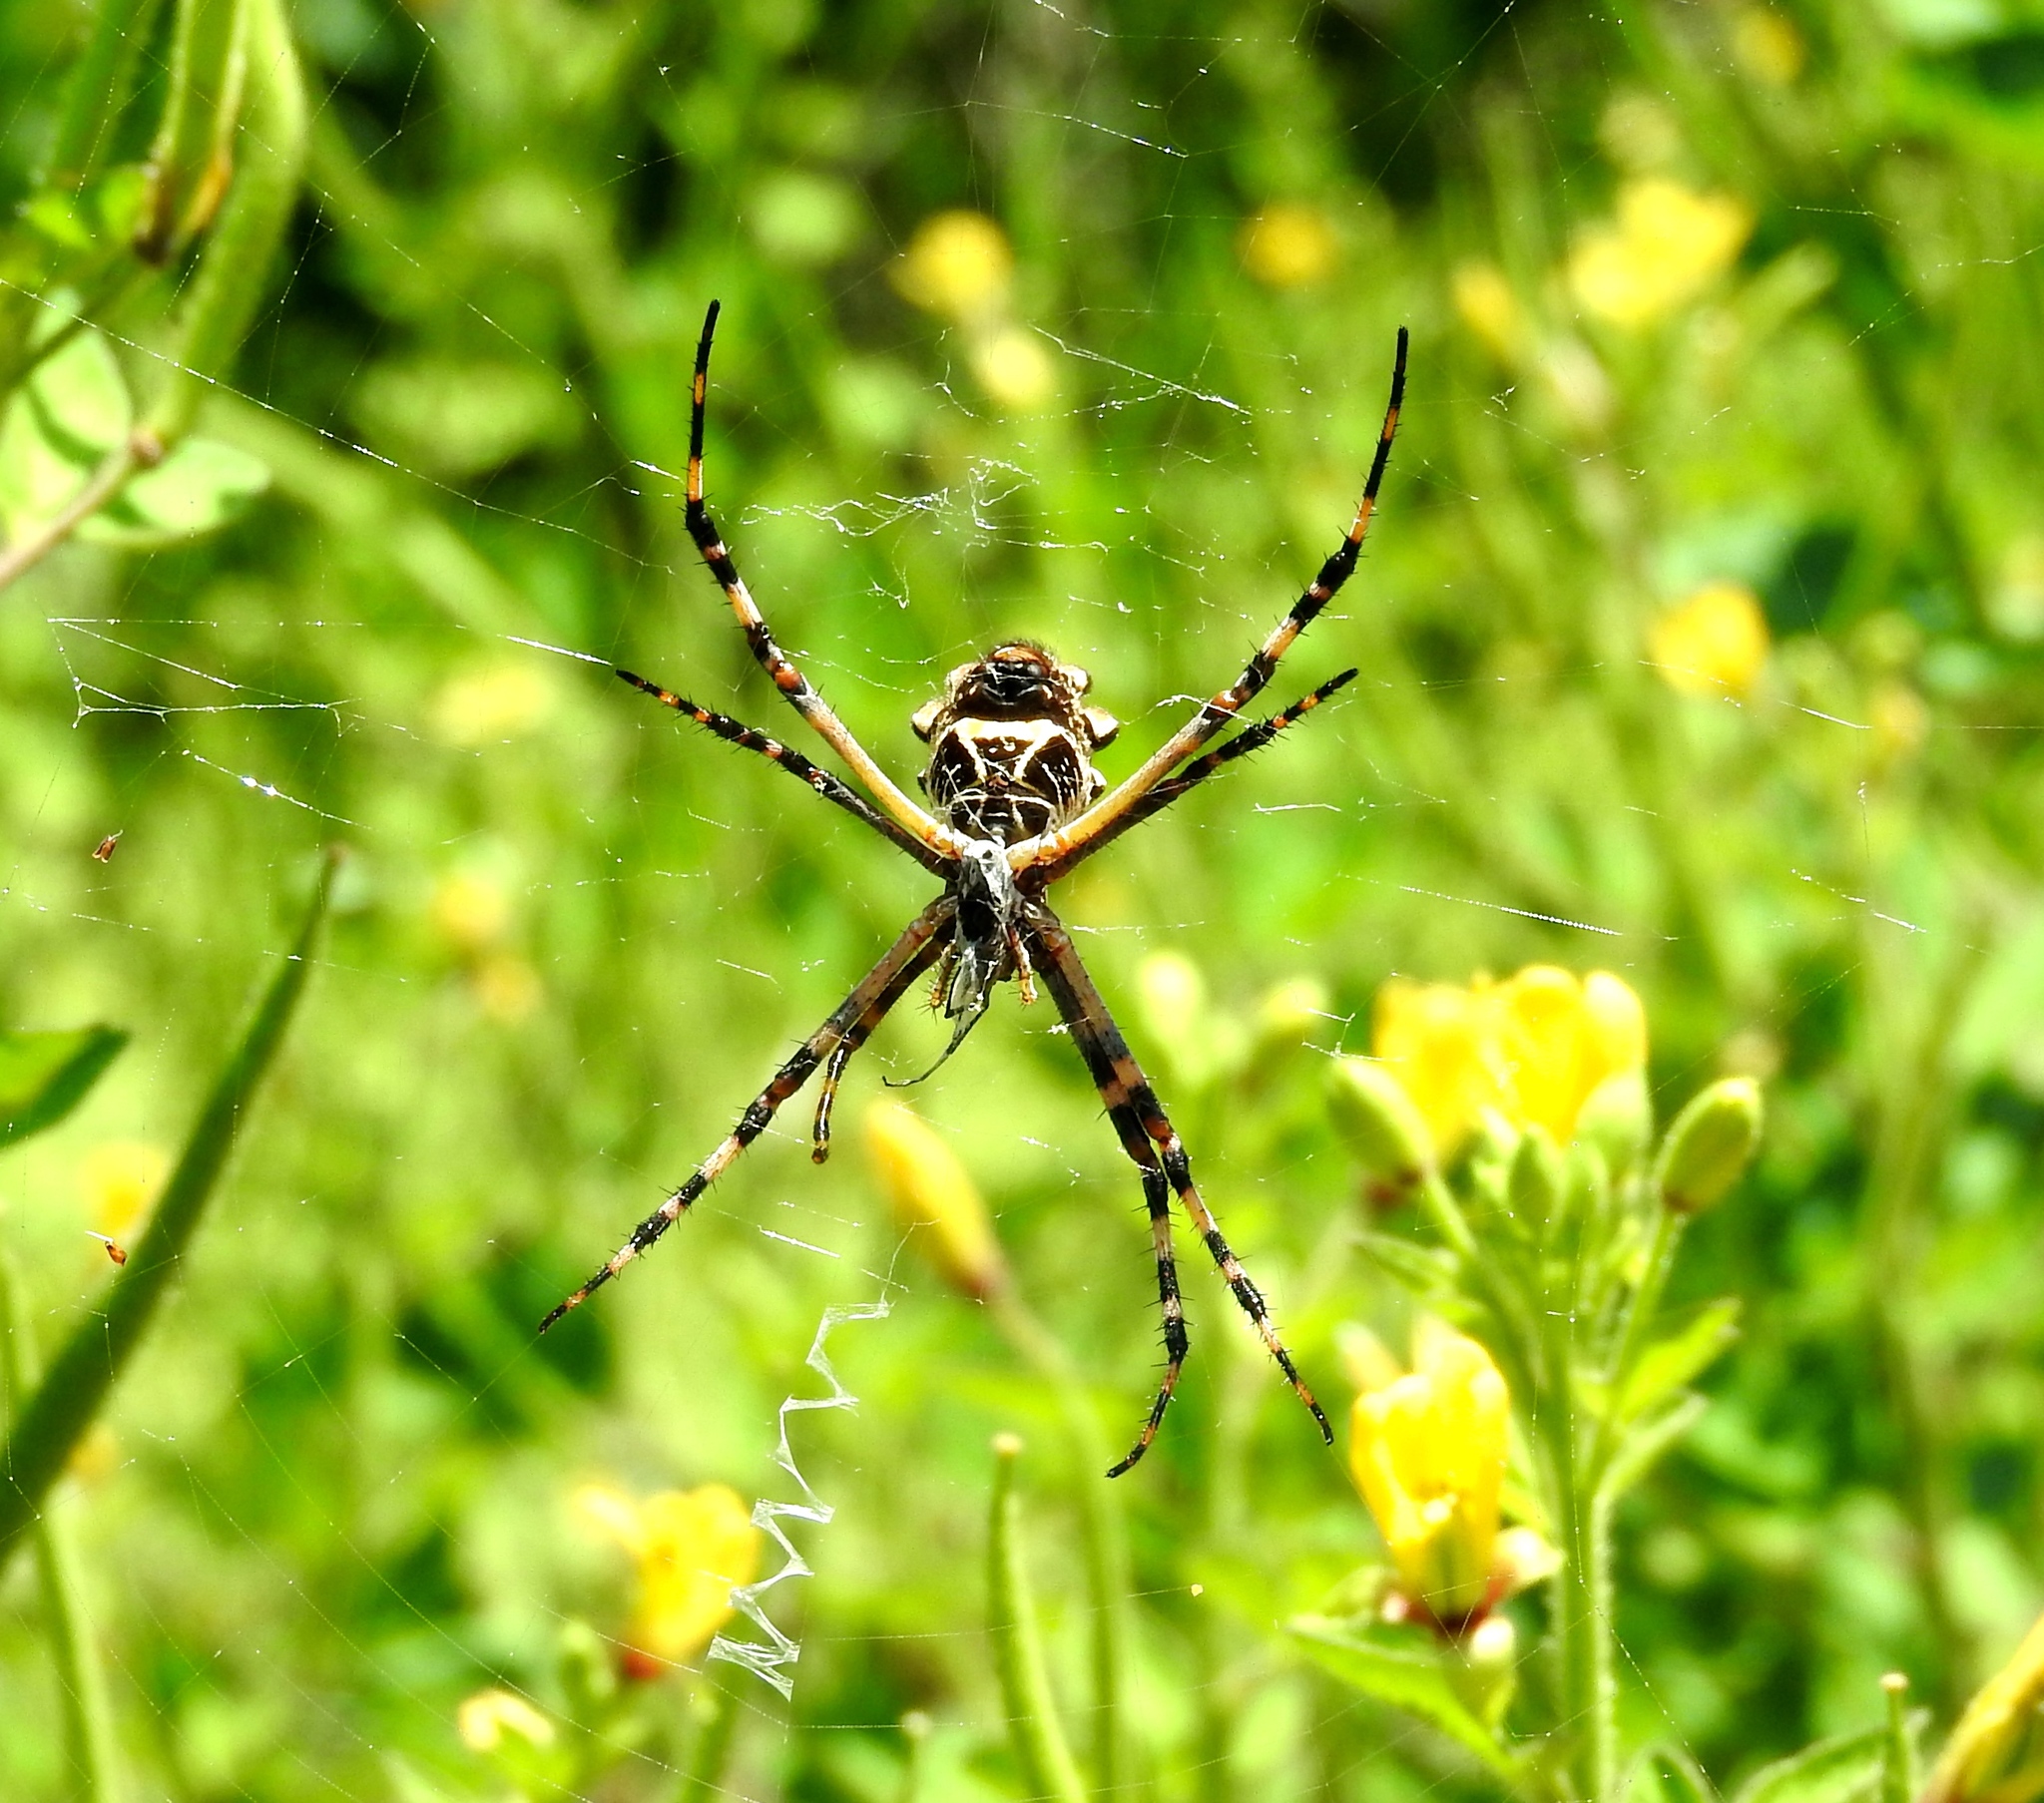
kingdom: Animalia
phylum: Arthropoda
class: Arachnida
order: Araneae
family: Araneidae
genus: Argiope
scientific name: Argiope argentata
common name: Orb weavers
